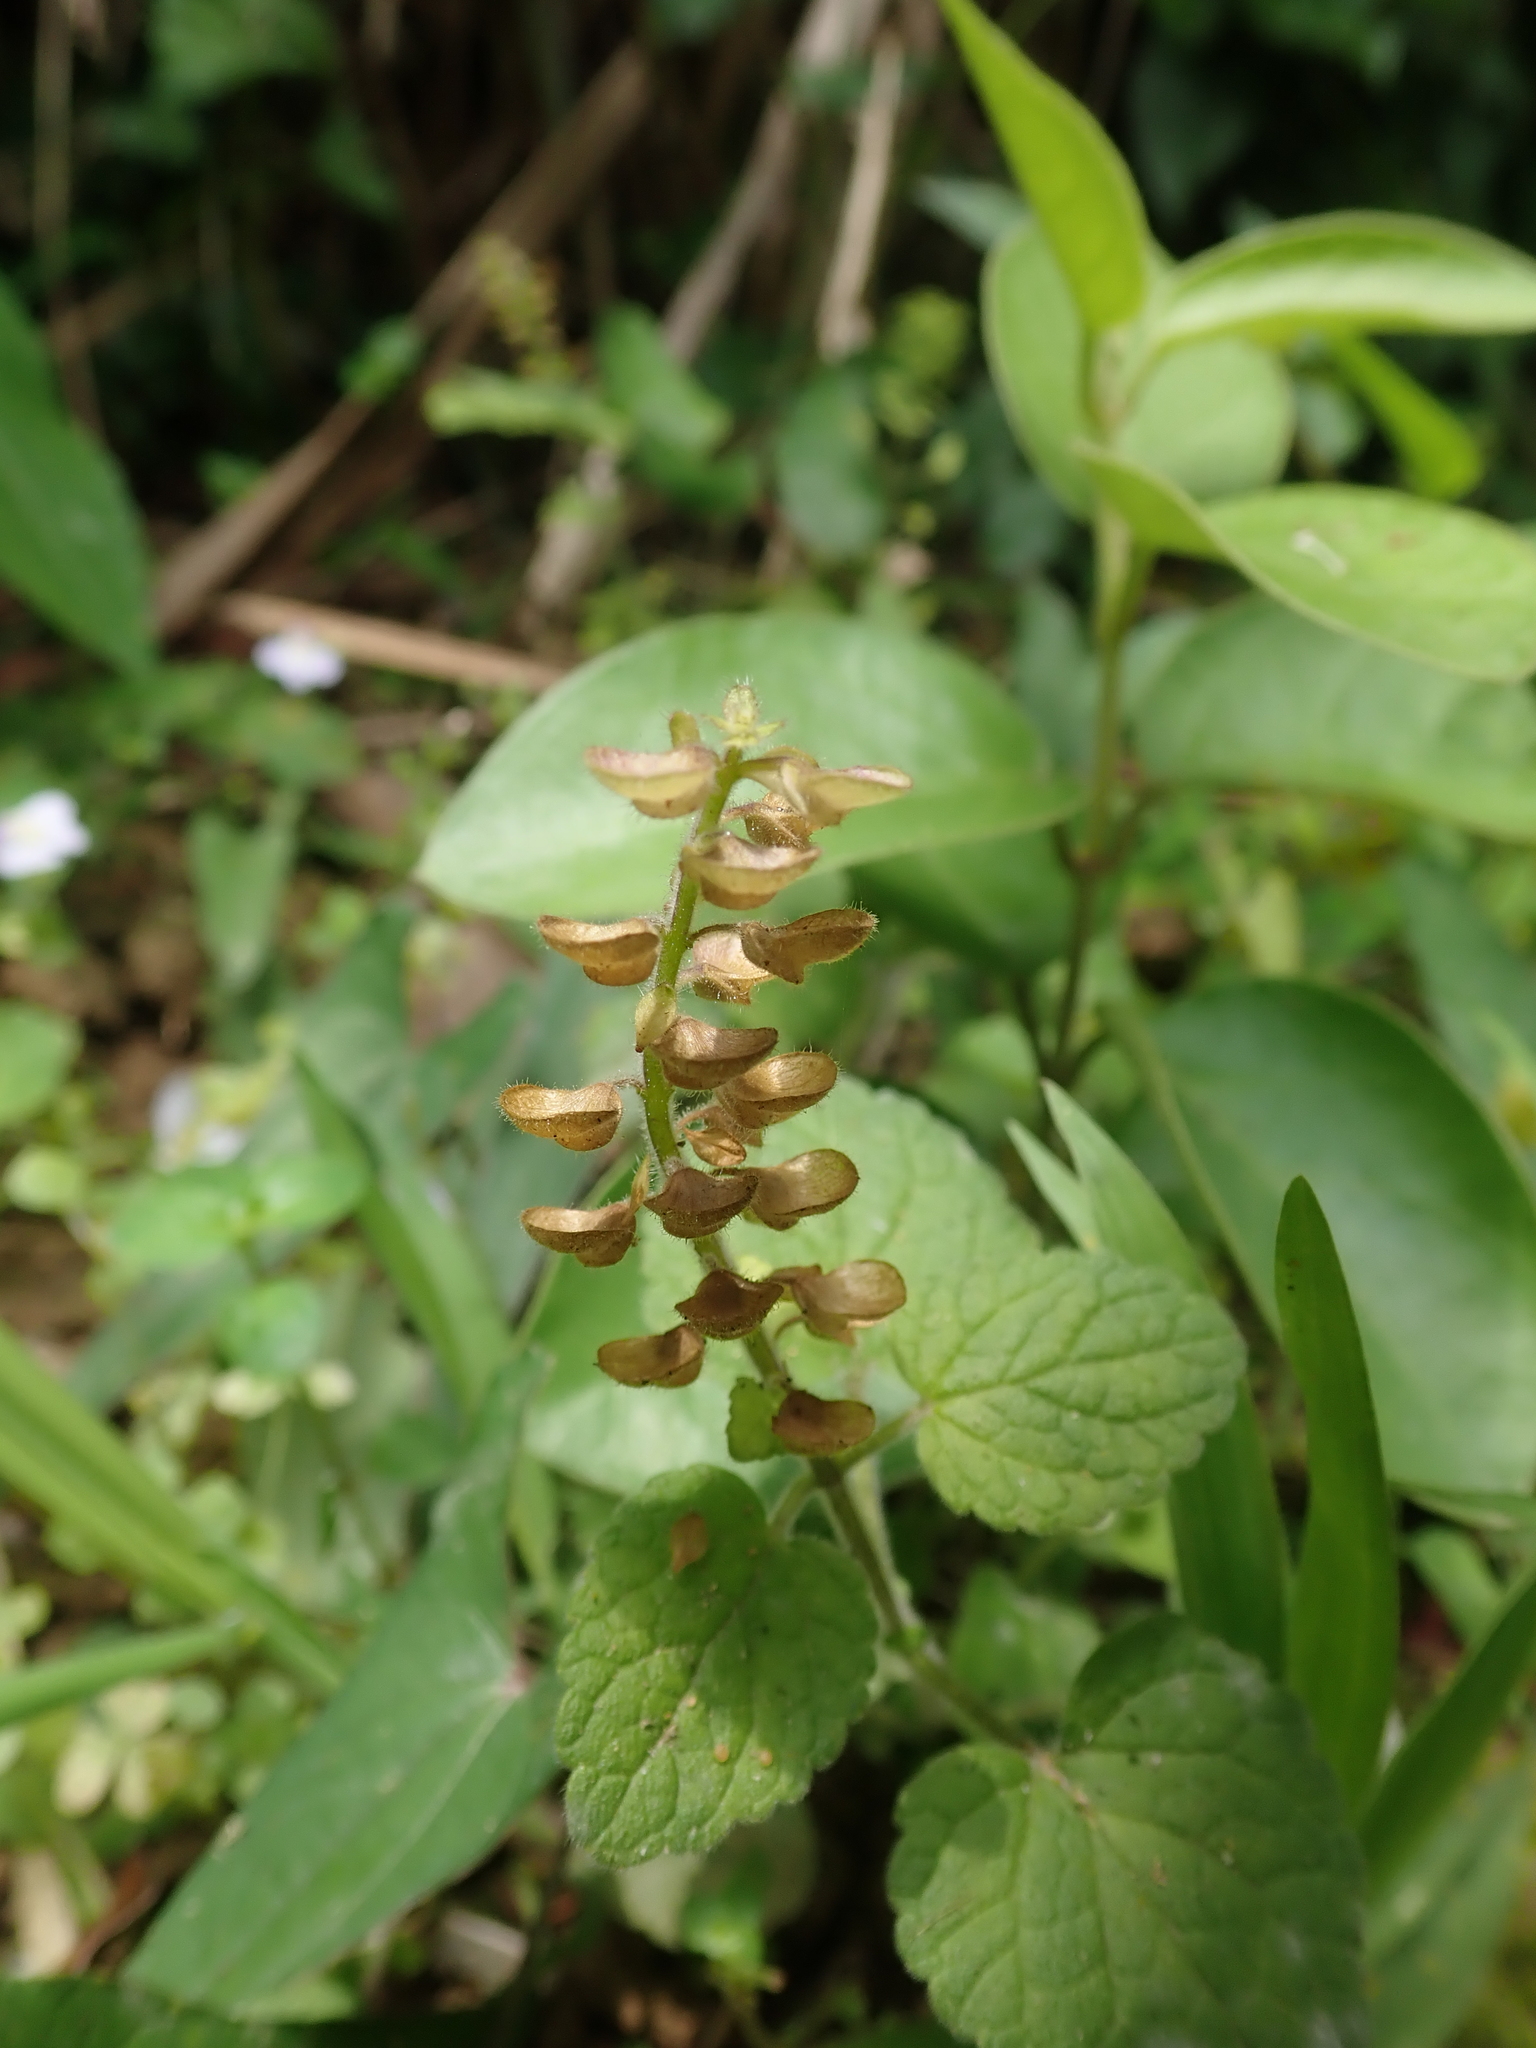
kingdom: Plantae
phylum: Tracheophyta
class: Magnoliopsida
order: Lamiales
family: Lamiaceae
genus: Scutellaria
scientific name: Scutellaria indica
